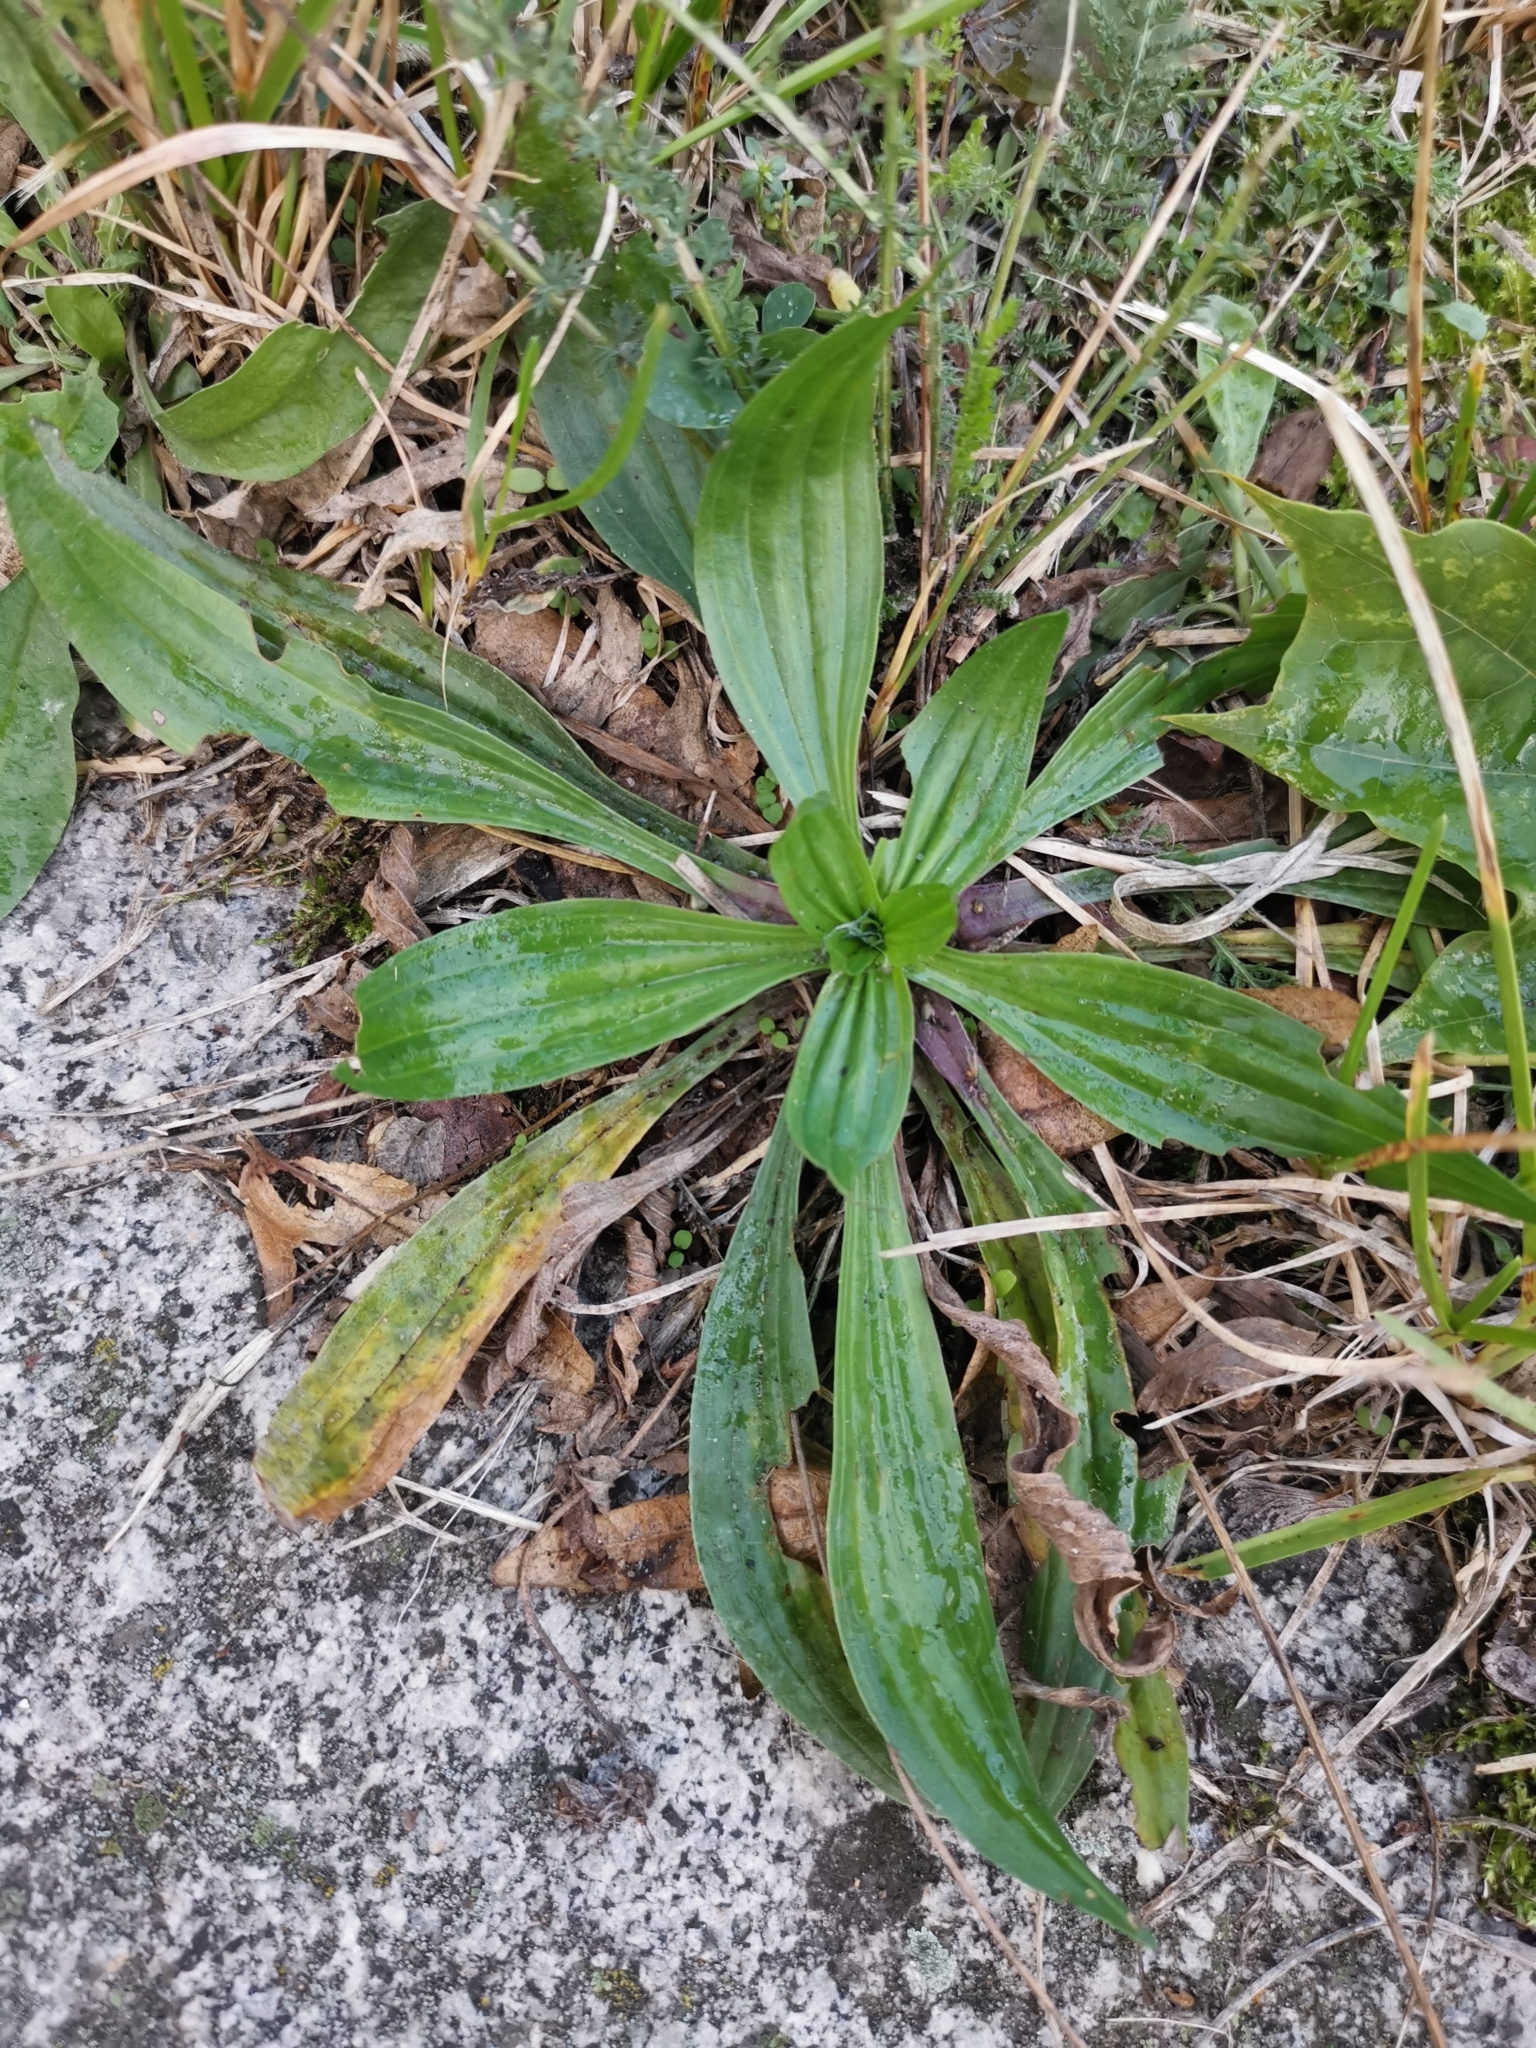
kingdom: Plantae
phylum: Tracheophyta
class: Magnoliopsida
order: Lamiales
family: Plantaginaceae
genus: Plantago
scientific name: Plantago lanceolata
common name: Ribwort plantain
